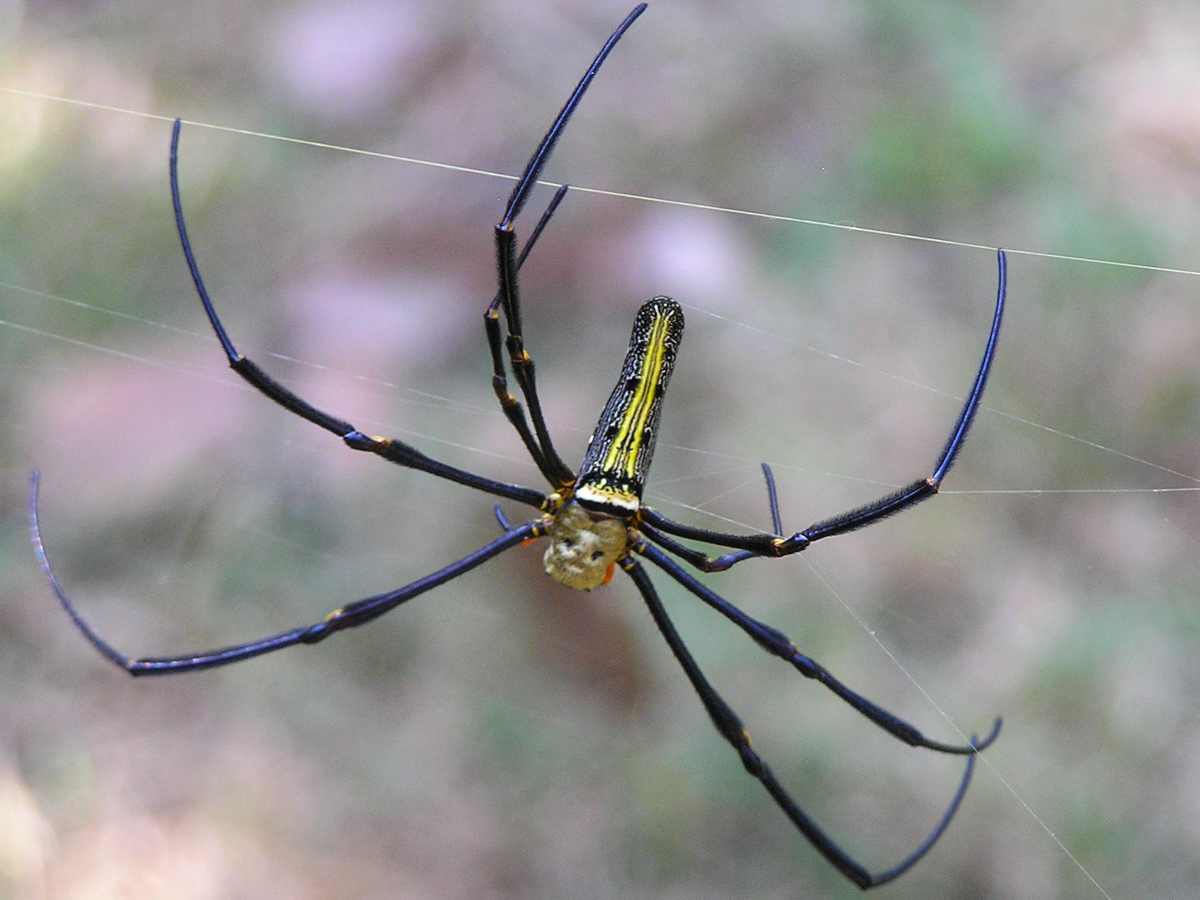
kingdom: Animalia
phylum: Arthropoda
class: Arachnida
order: Araneae
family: Araneidae
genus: Nephila
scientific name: Nephila pilipes
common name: Giant golden orb weaver
